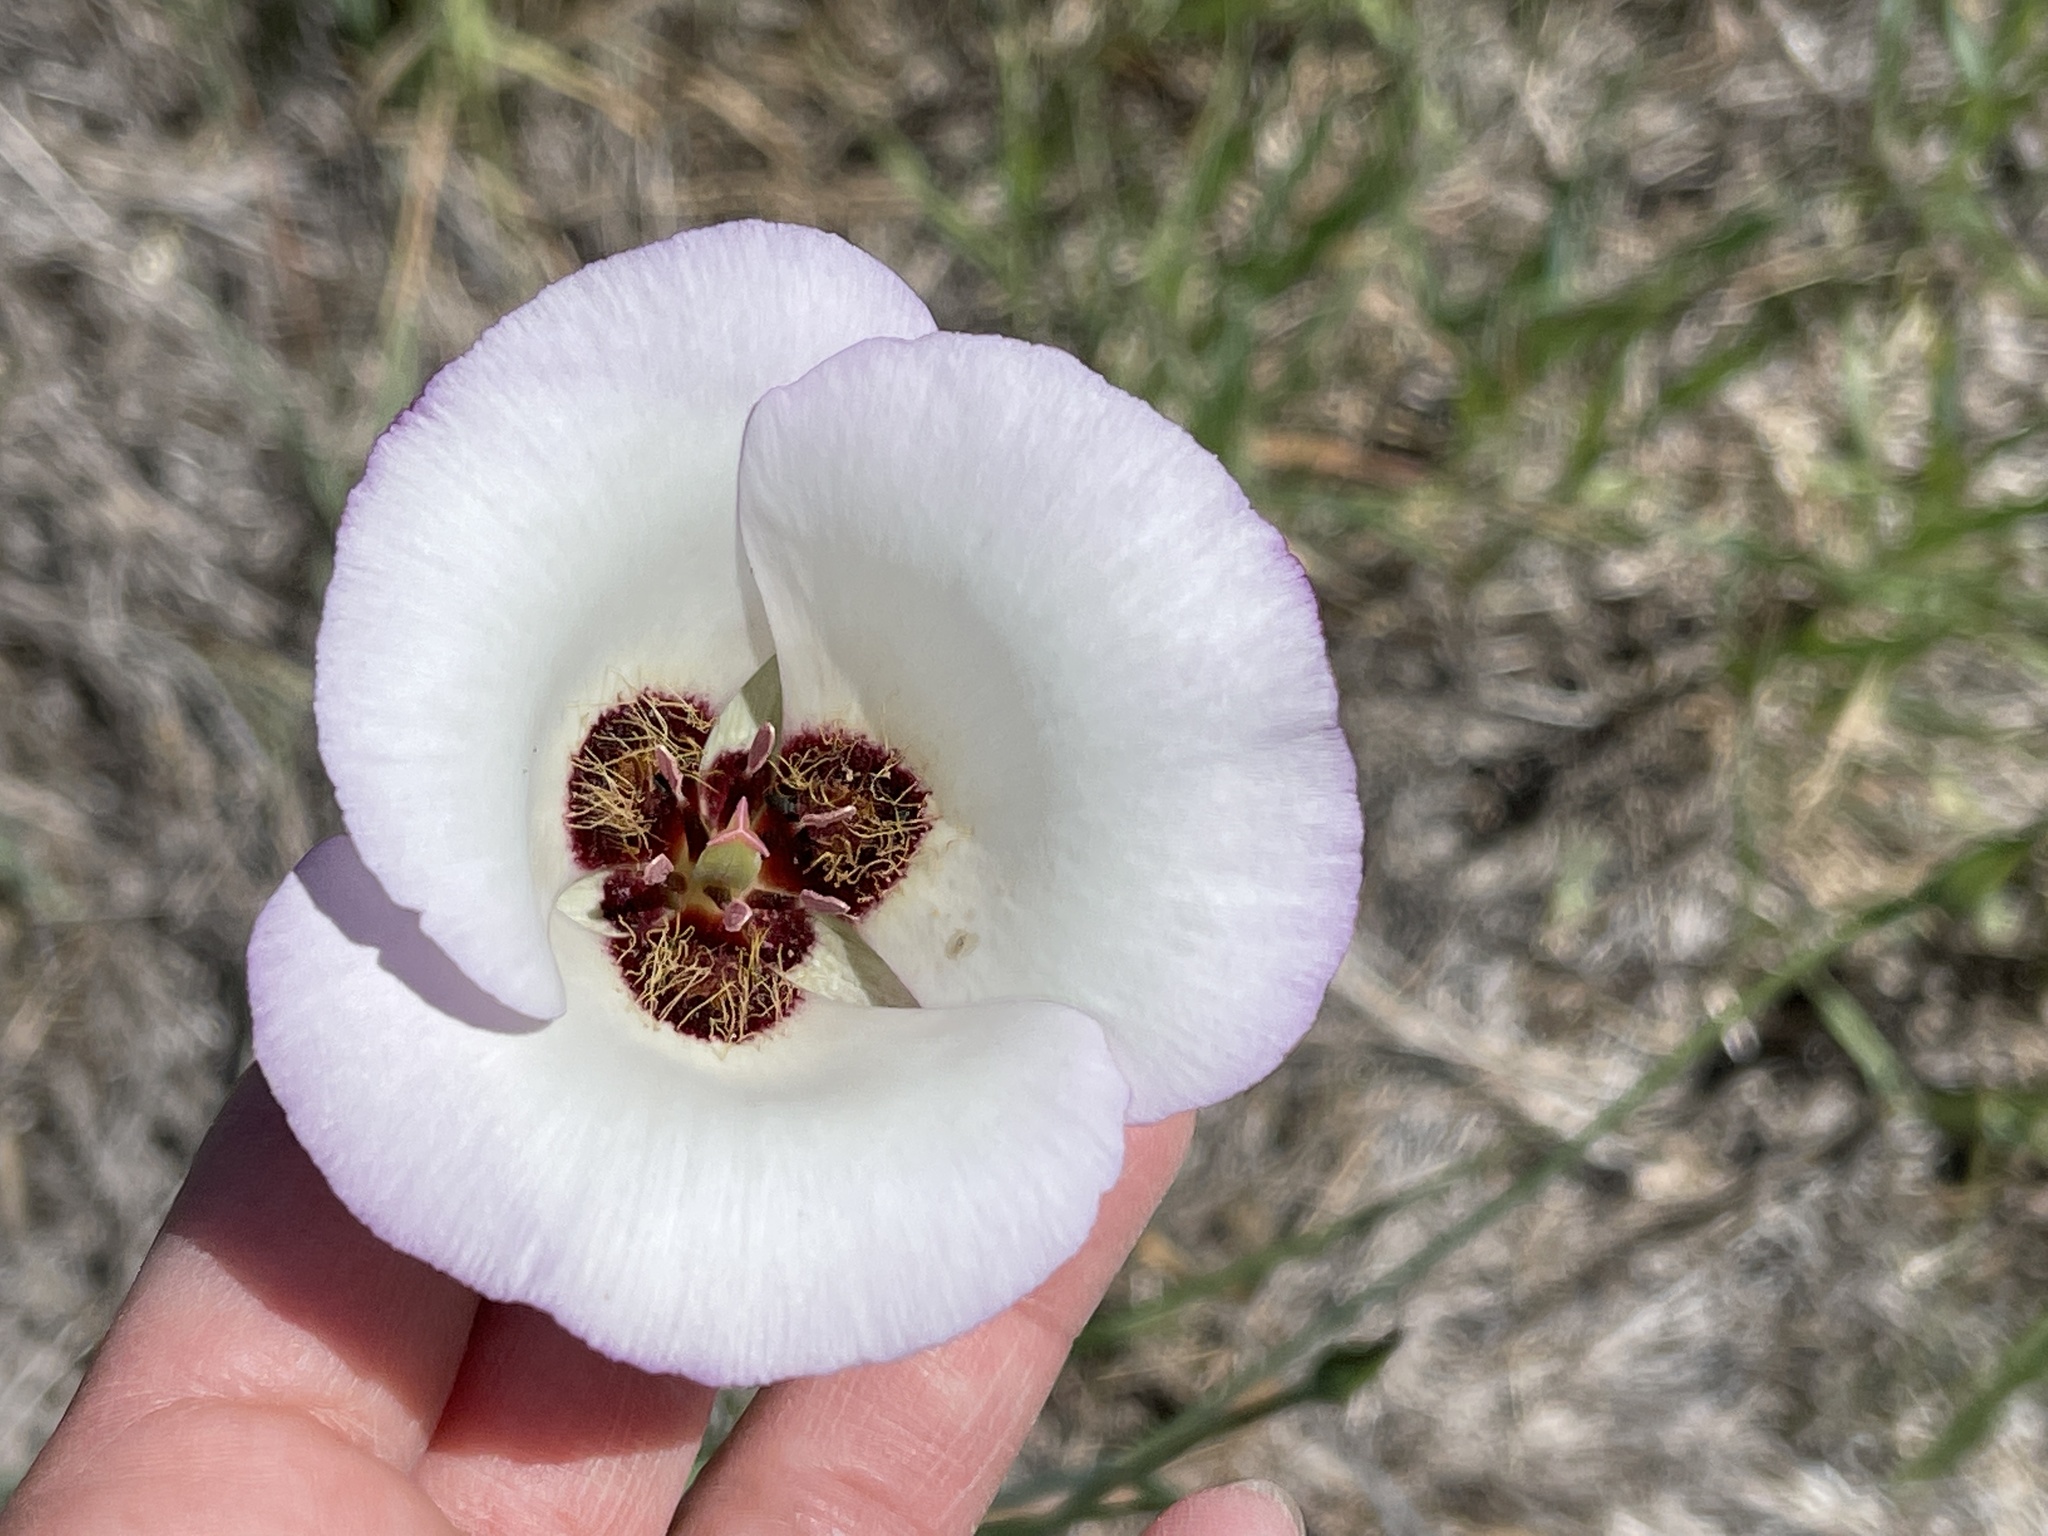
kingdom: Plantae
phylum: Tracheophyta
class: Liliopsida
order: Liliales
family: Liliaceae
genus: Calochortus
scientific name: Calochortus catalinae
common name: Catalina mariposa-lily
